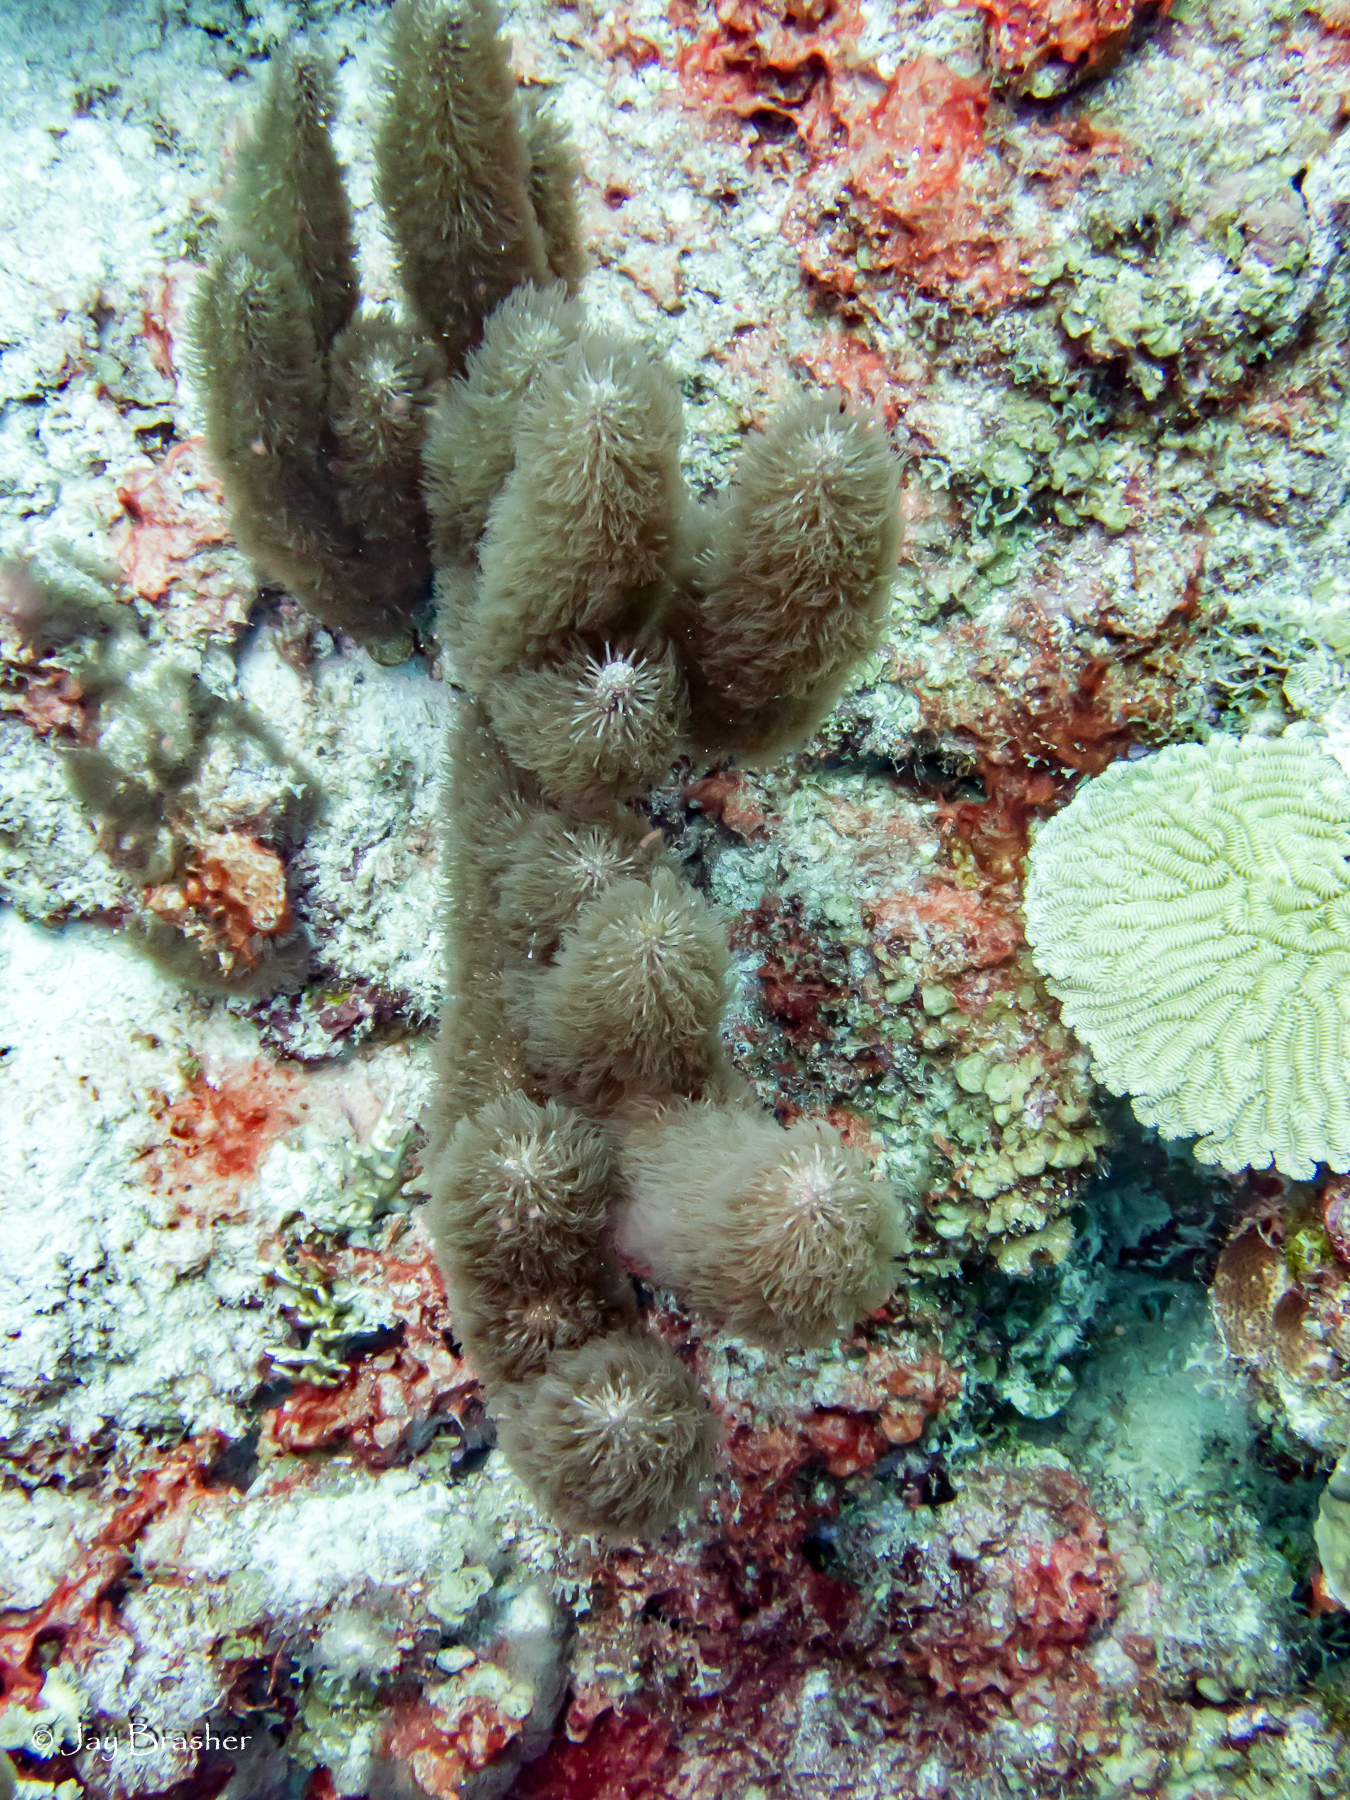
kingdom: Animalia
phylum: Cnidaria
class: Anthozoa
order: Scleralcyonacea
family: Briareidae
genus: Briareum
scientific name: Briareum asbestinum
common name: Corky sea finger
